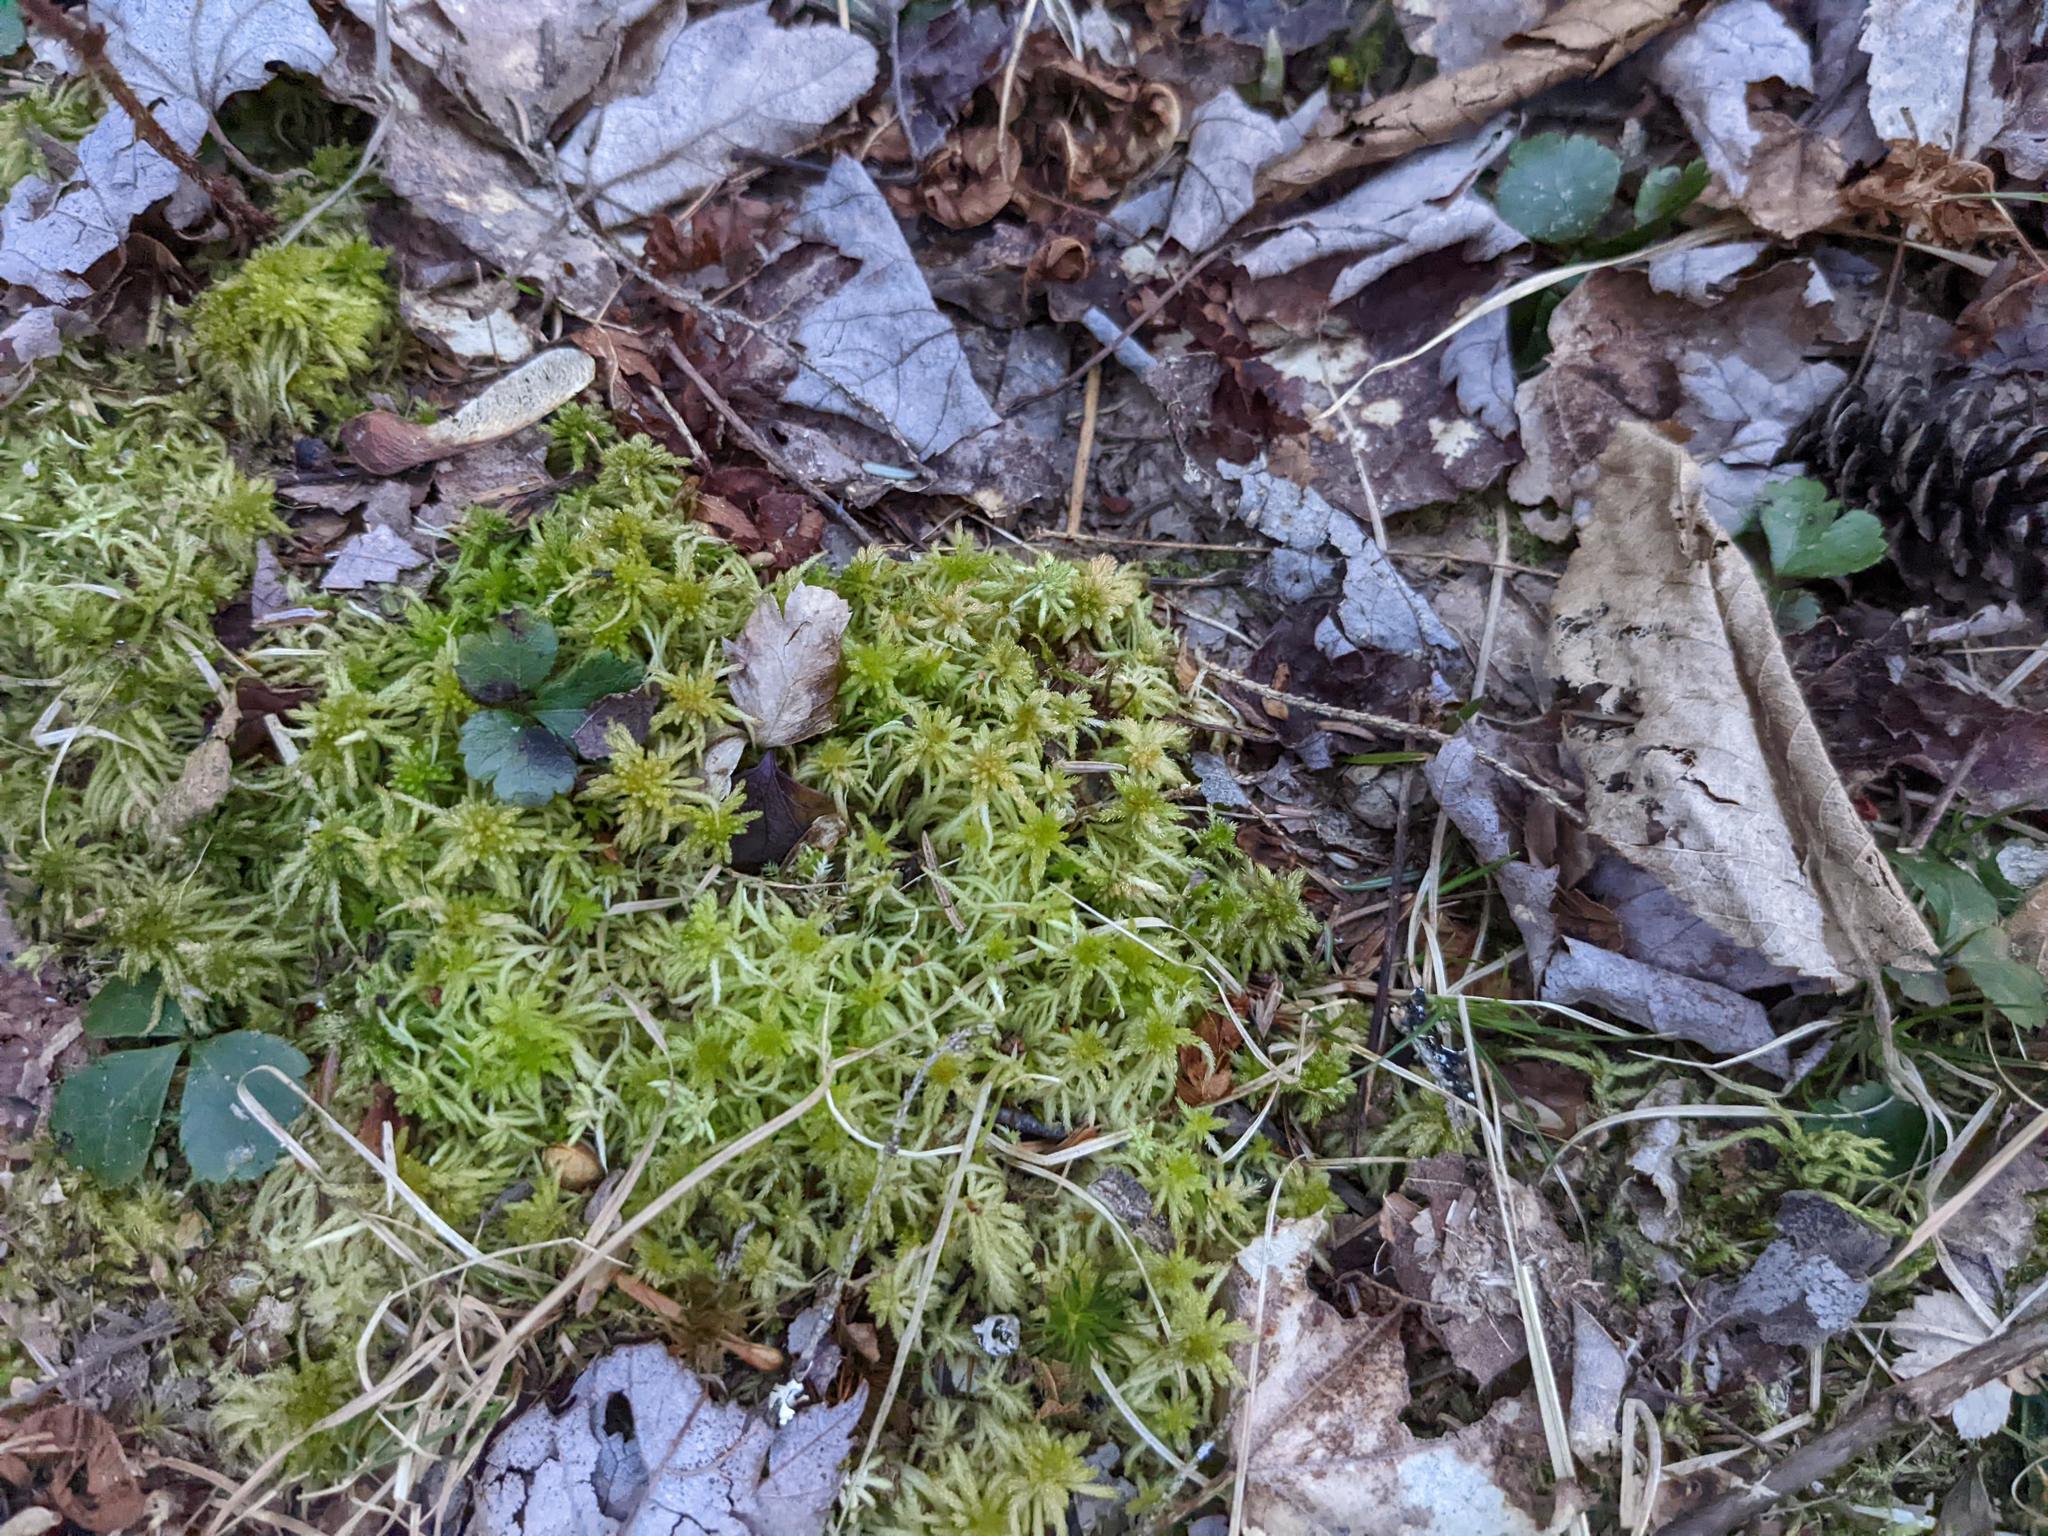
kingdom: Plantae
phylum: Tracheophyta
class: Magnoliopsida
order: Ranunculales
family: Ranunculaceae
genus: Coptis
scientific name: Coptis trifolia
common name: Canker-root
